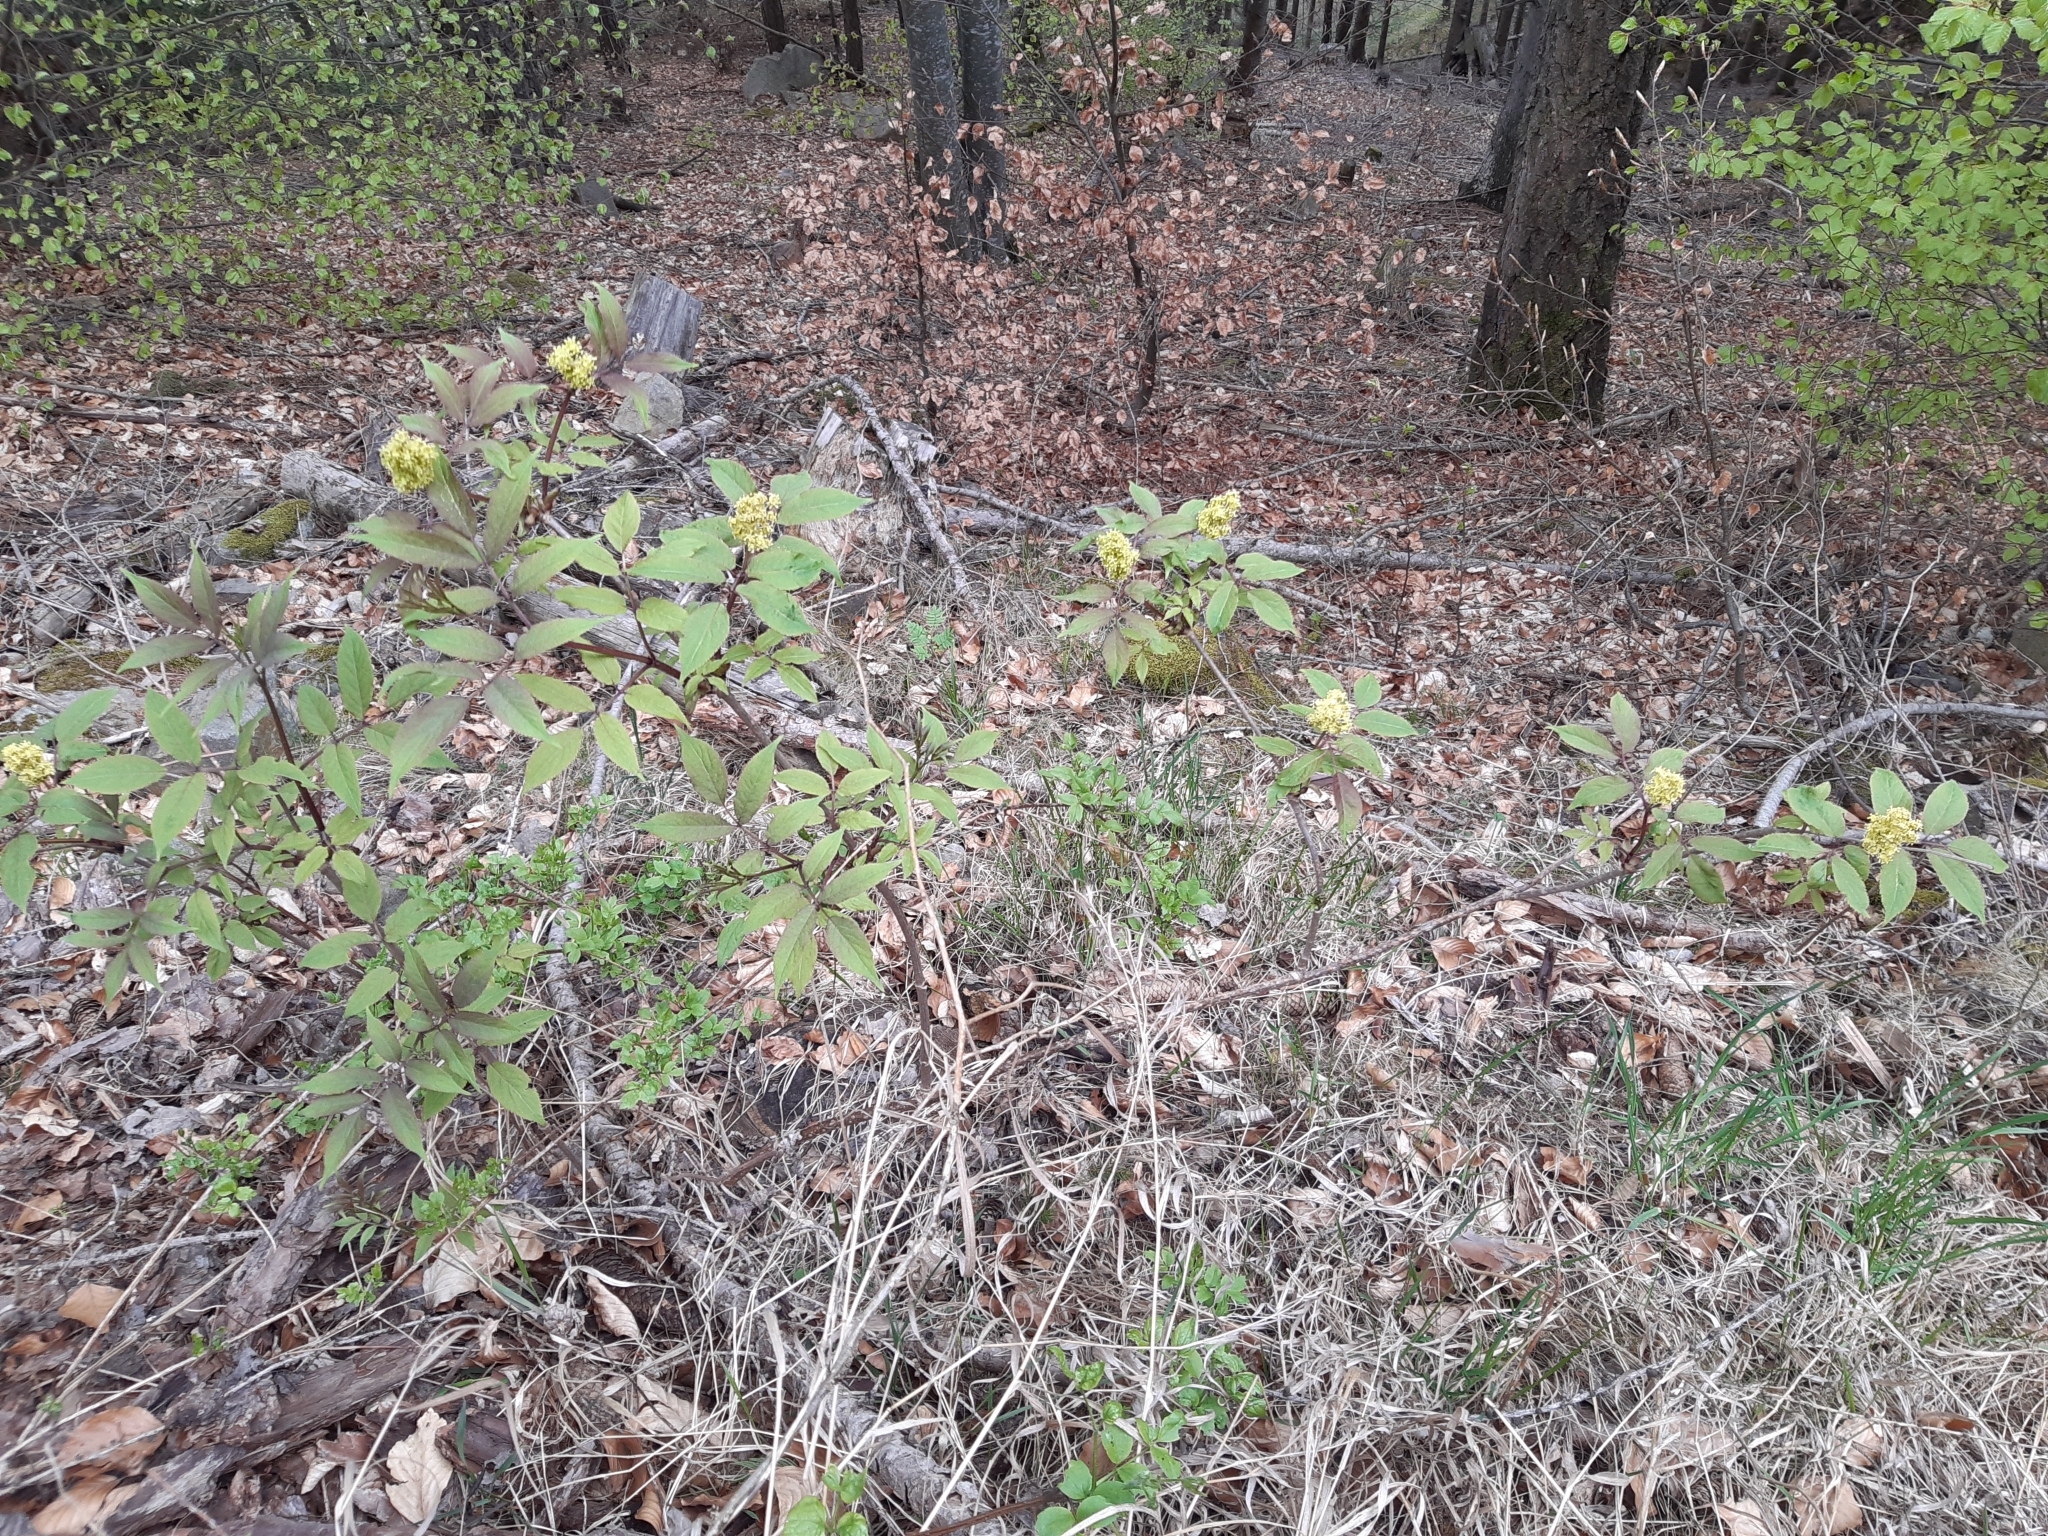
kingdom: Plantae
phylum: Tracheophyta
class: Magnoliopsida
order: Dipsacales
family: Viburnaceae
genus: Sambucus
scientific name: Sambucus racemosa
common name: Red-berried elder
